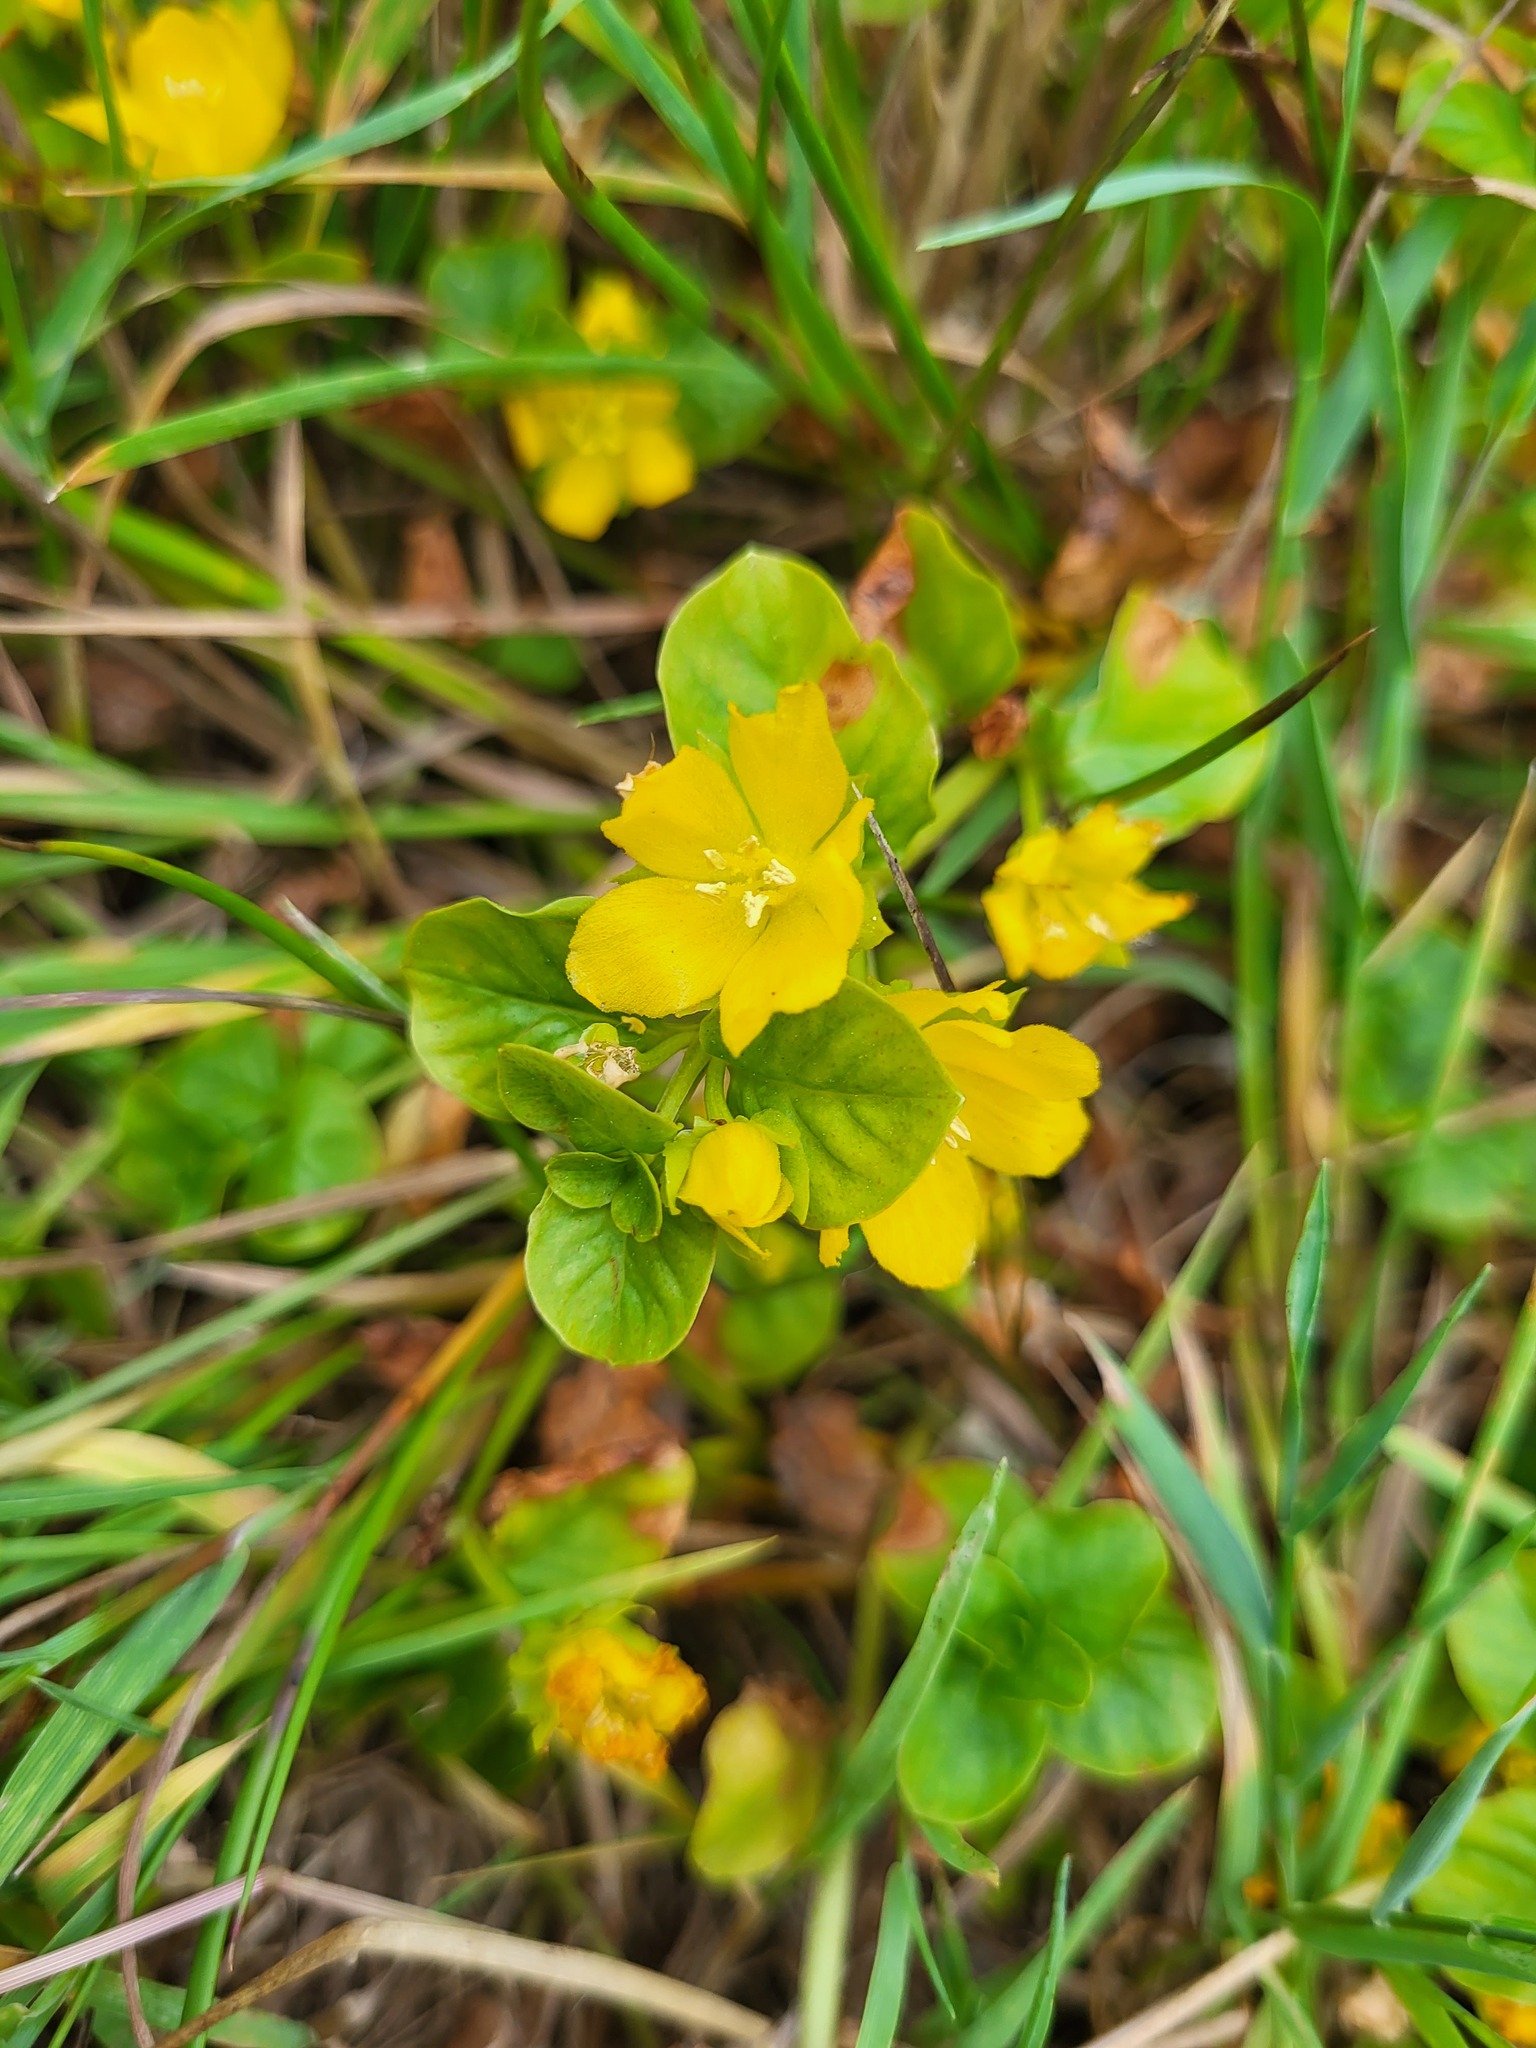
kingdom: Plantae
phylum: Tracheophyta
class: Magnoliopsida
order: Ericales
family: Primulaceae
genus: Lysimachia
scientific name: Lysimachia nummularia
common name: Moneywort
